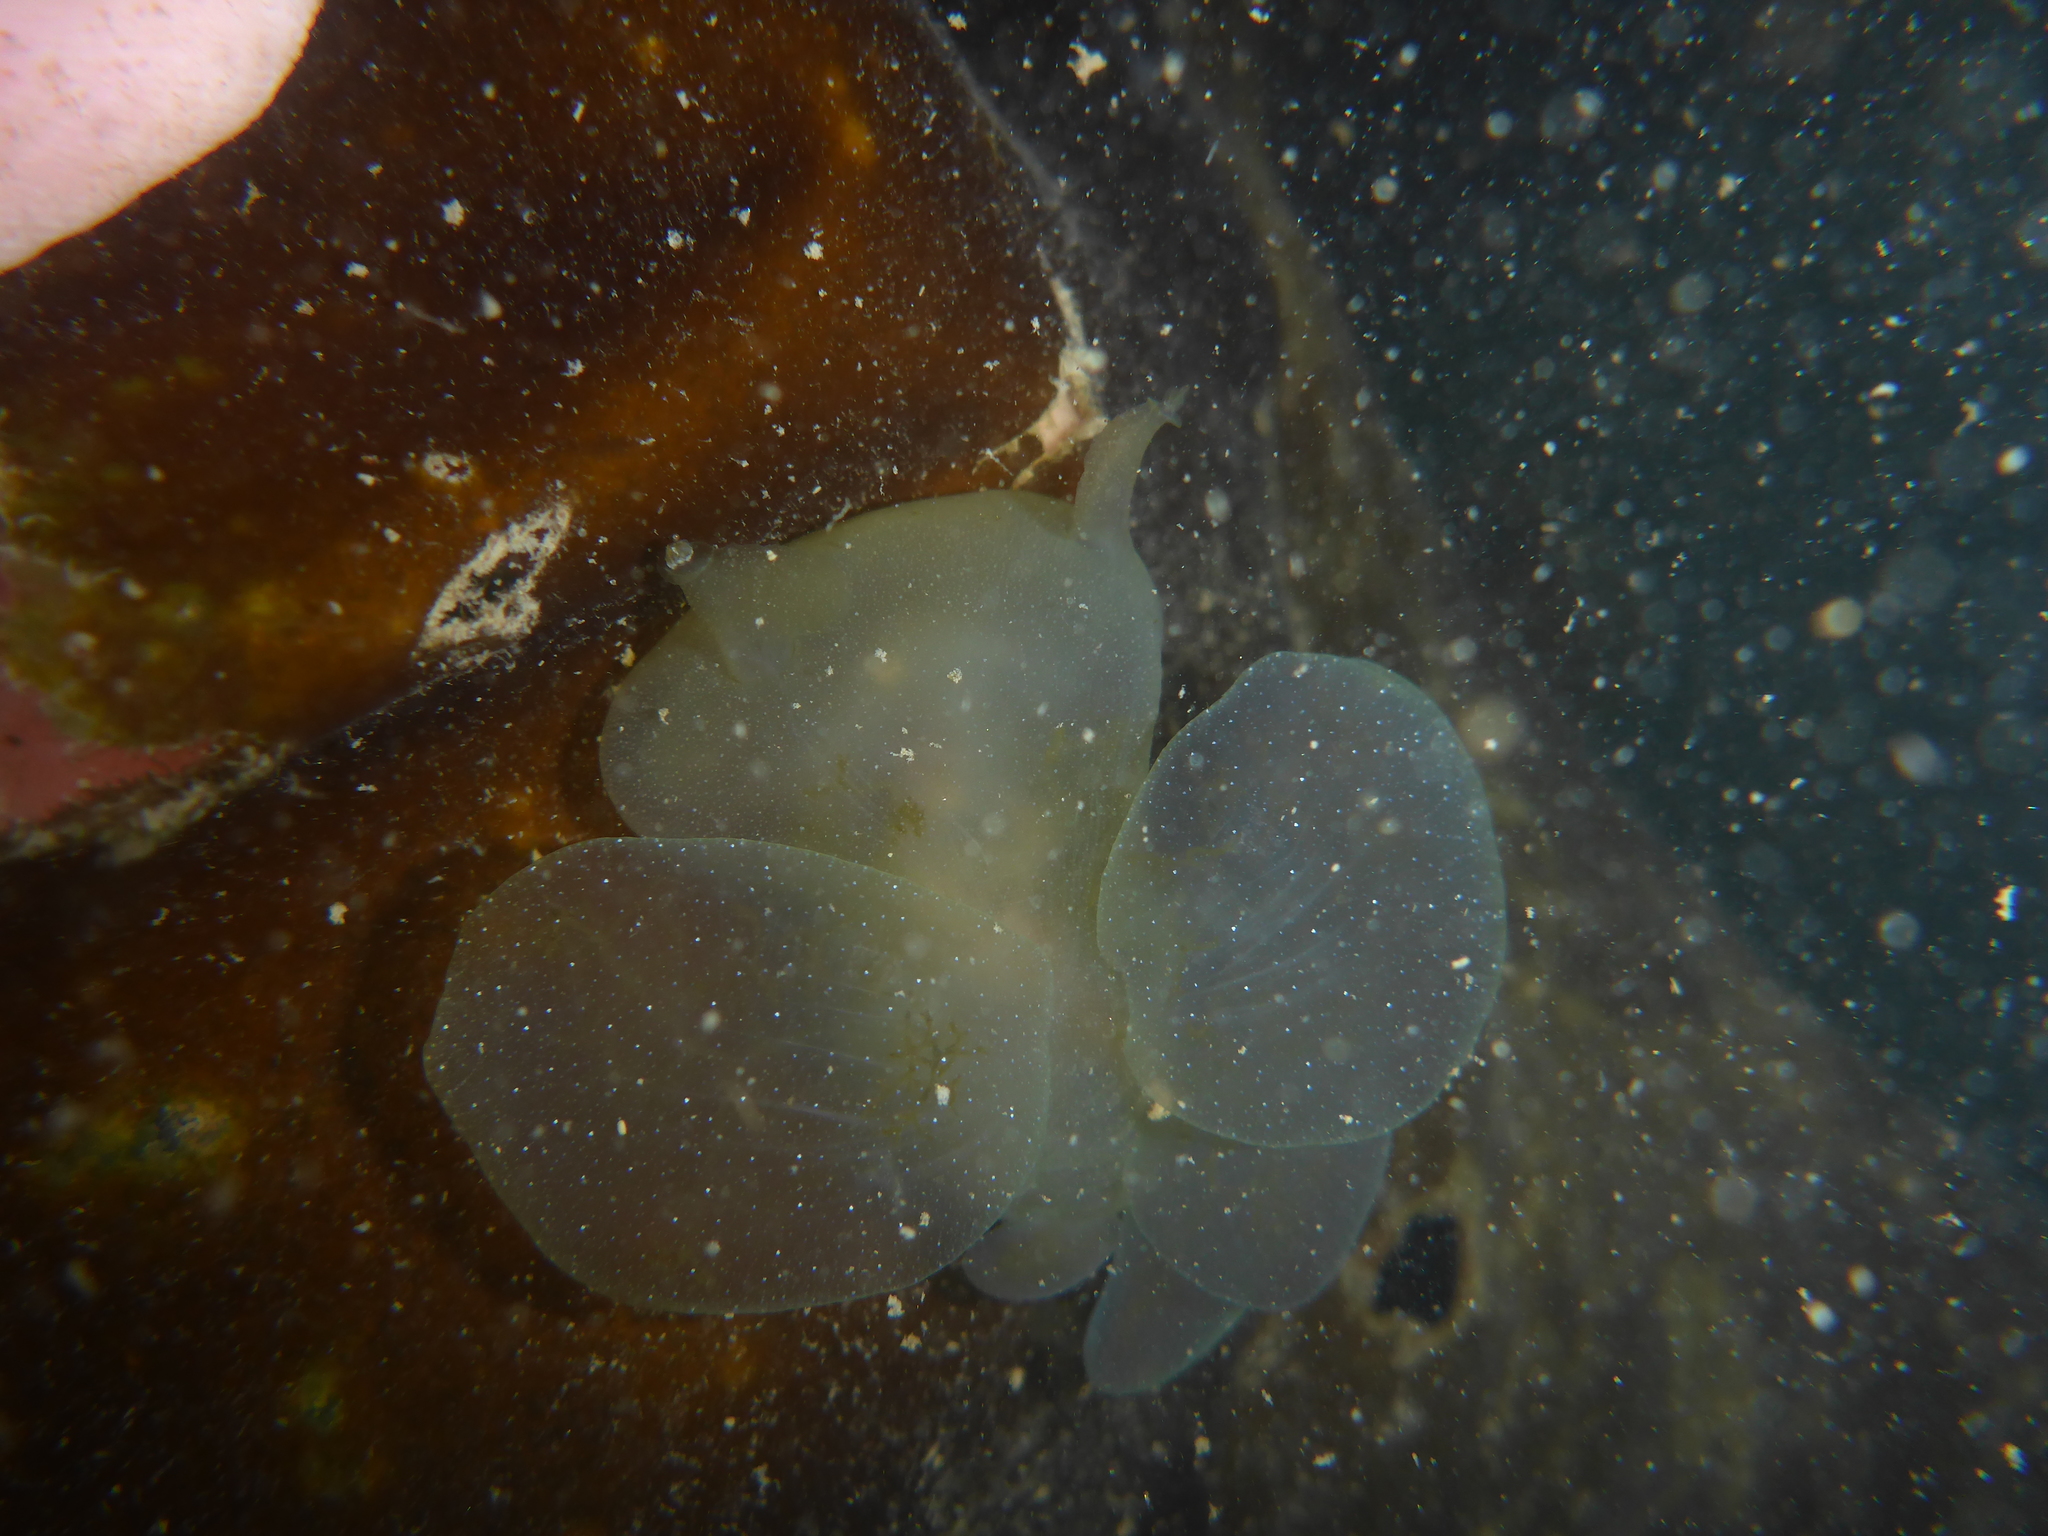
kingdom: Animalia
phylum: Mollusca
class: Gastropoda
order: Nudibranchia
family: Tethydidae
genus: Melibe
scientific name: Melibe leonina
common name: Lion nudibranch
